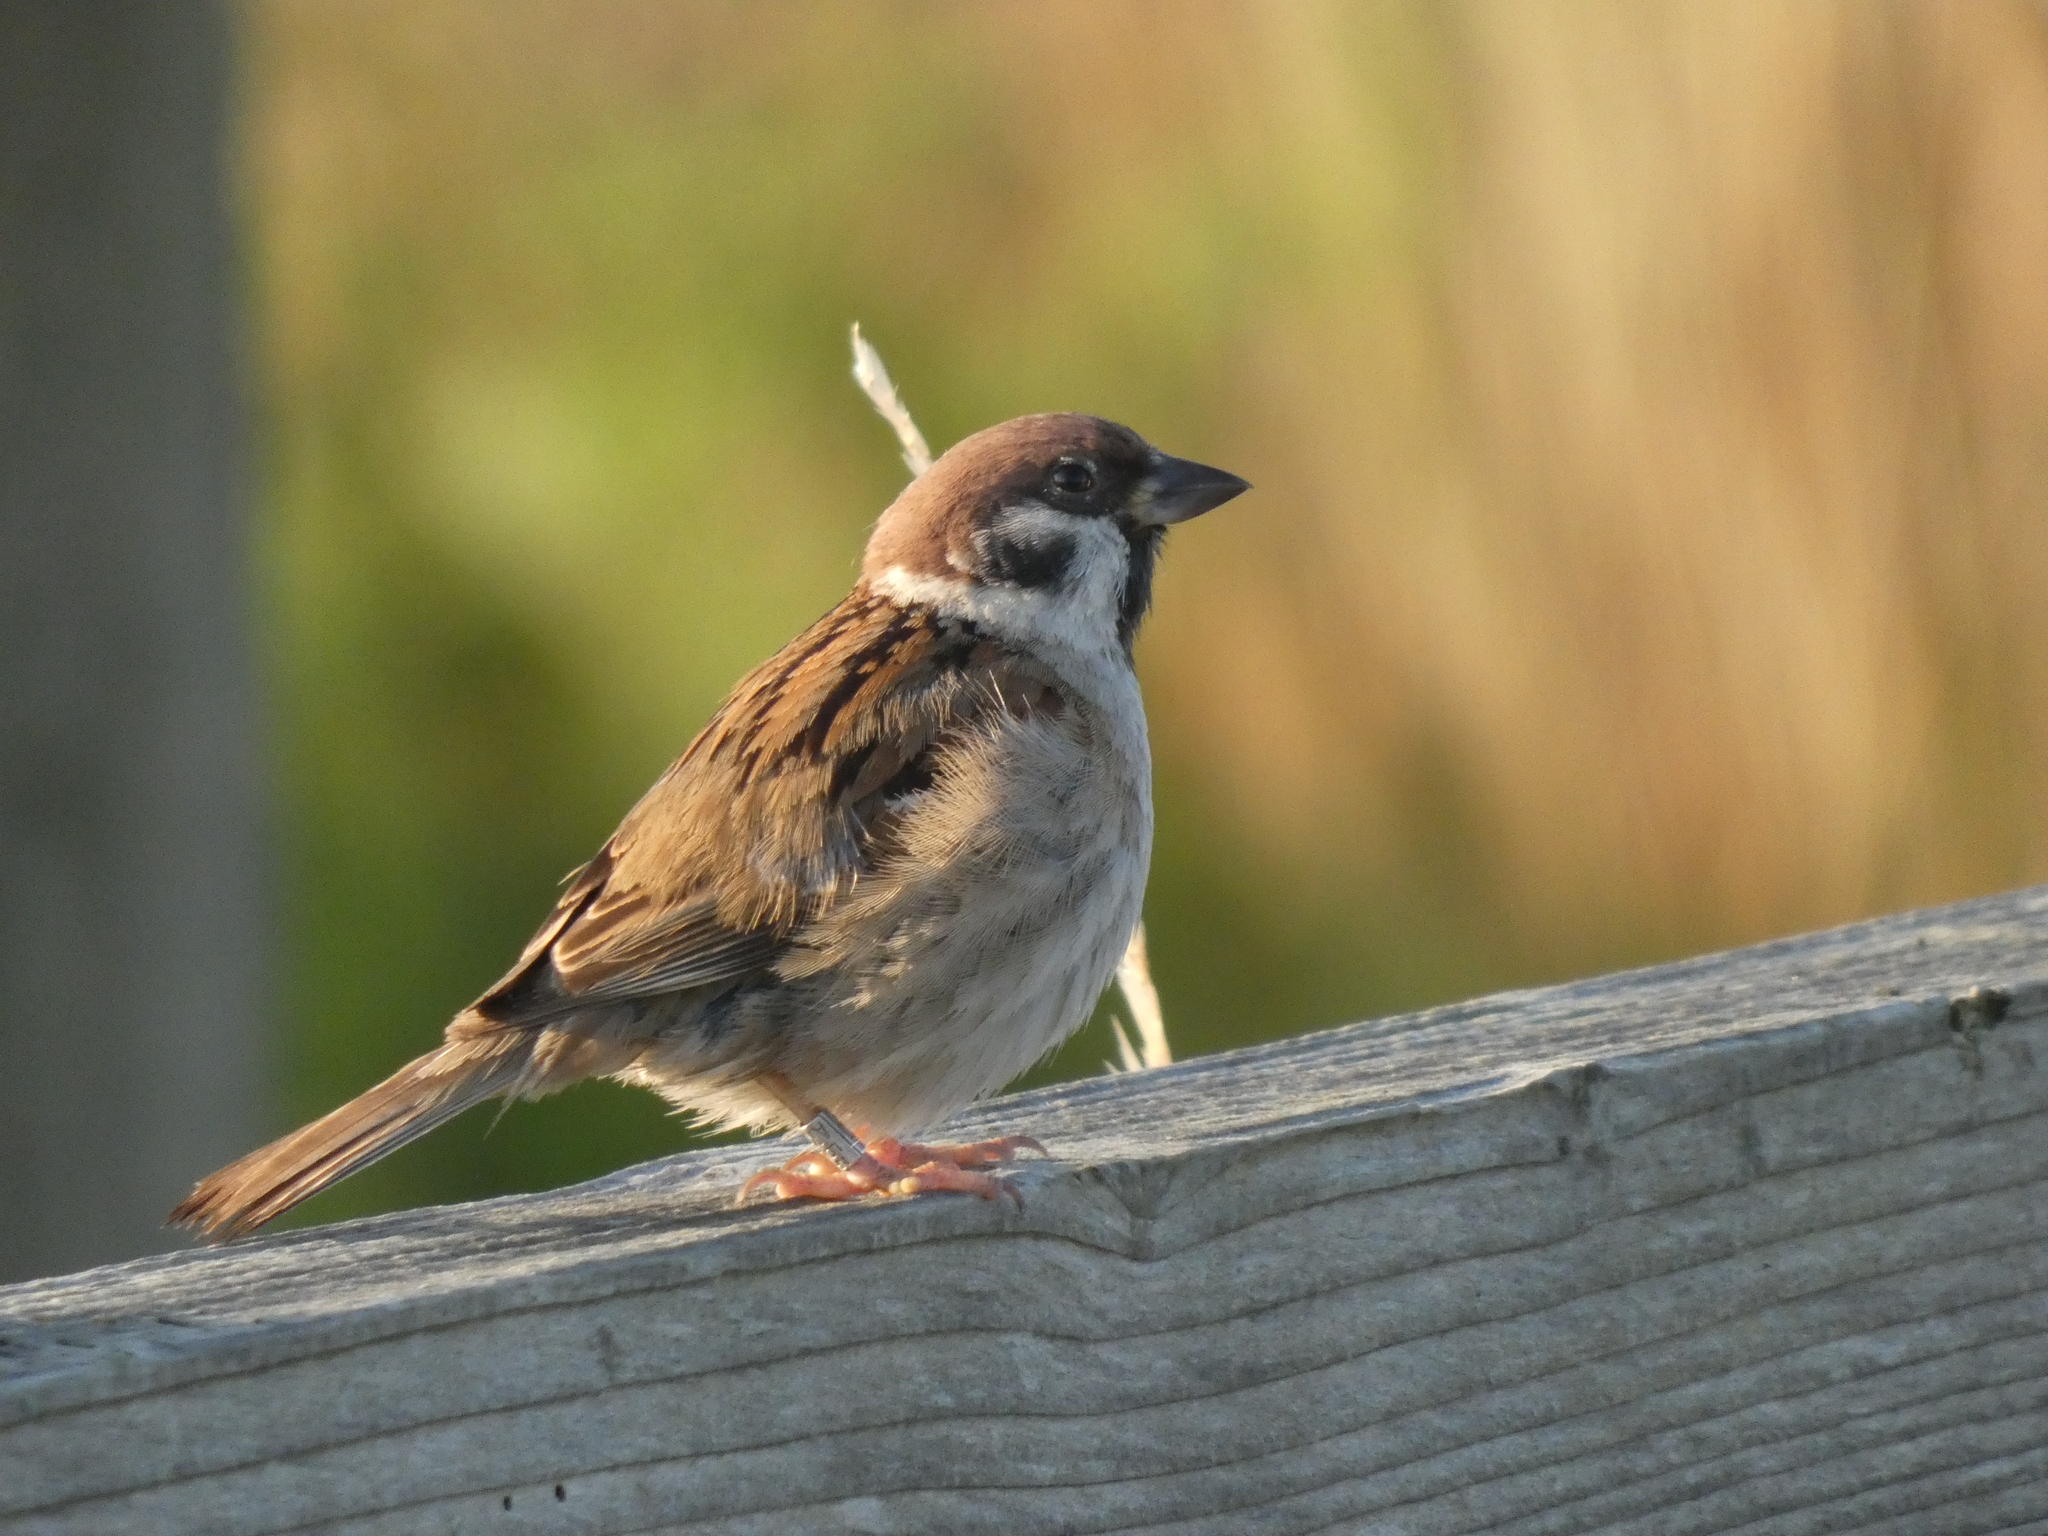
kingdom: Animalia
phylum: Chordata
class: Aves
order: Passeriformes
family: Passeridae
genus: Passer
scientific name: Passer montanus
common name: Eurasian tree sparrow
